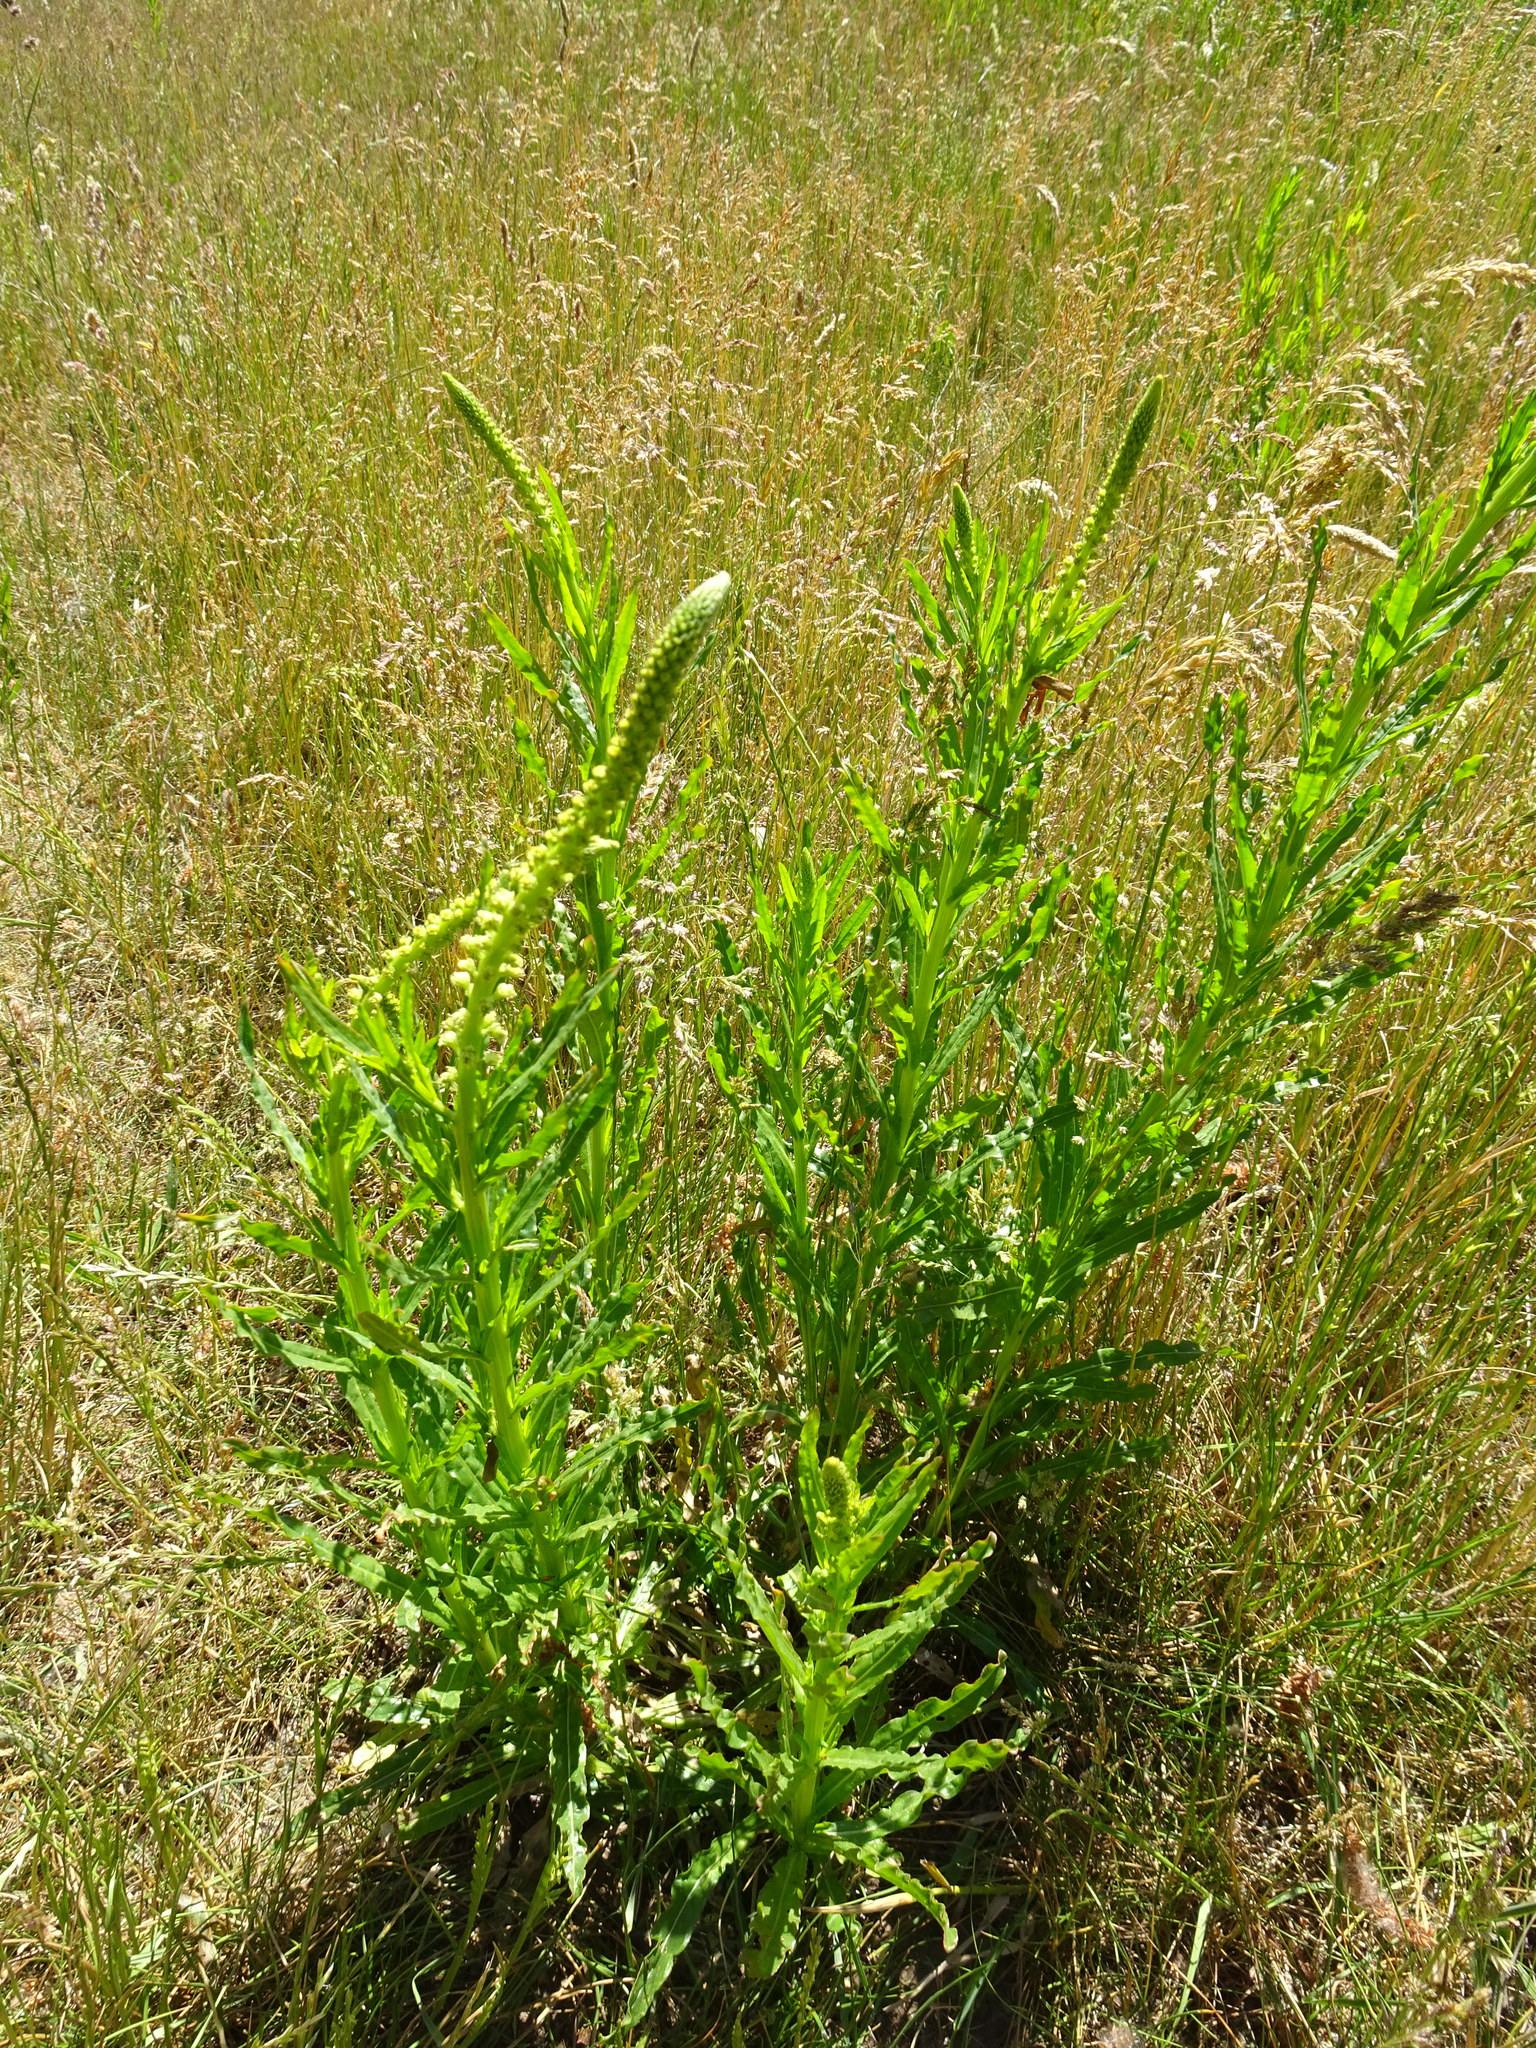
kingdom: Plantae
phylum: Tracheophyta
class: Magnoliopsida
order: Brassicales
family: Resedaceae
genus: Reseda
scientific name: Reseda luteola
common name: Weld
